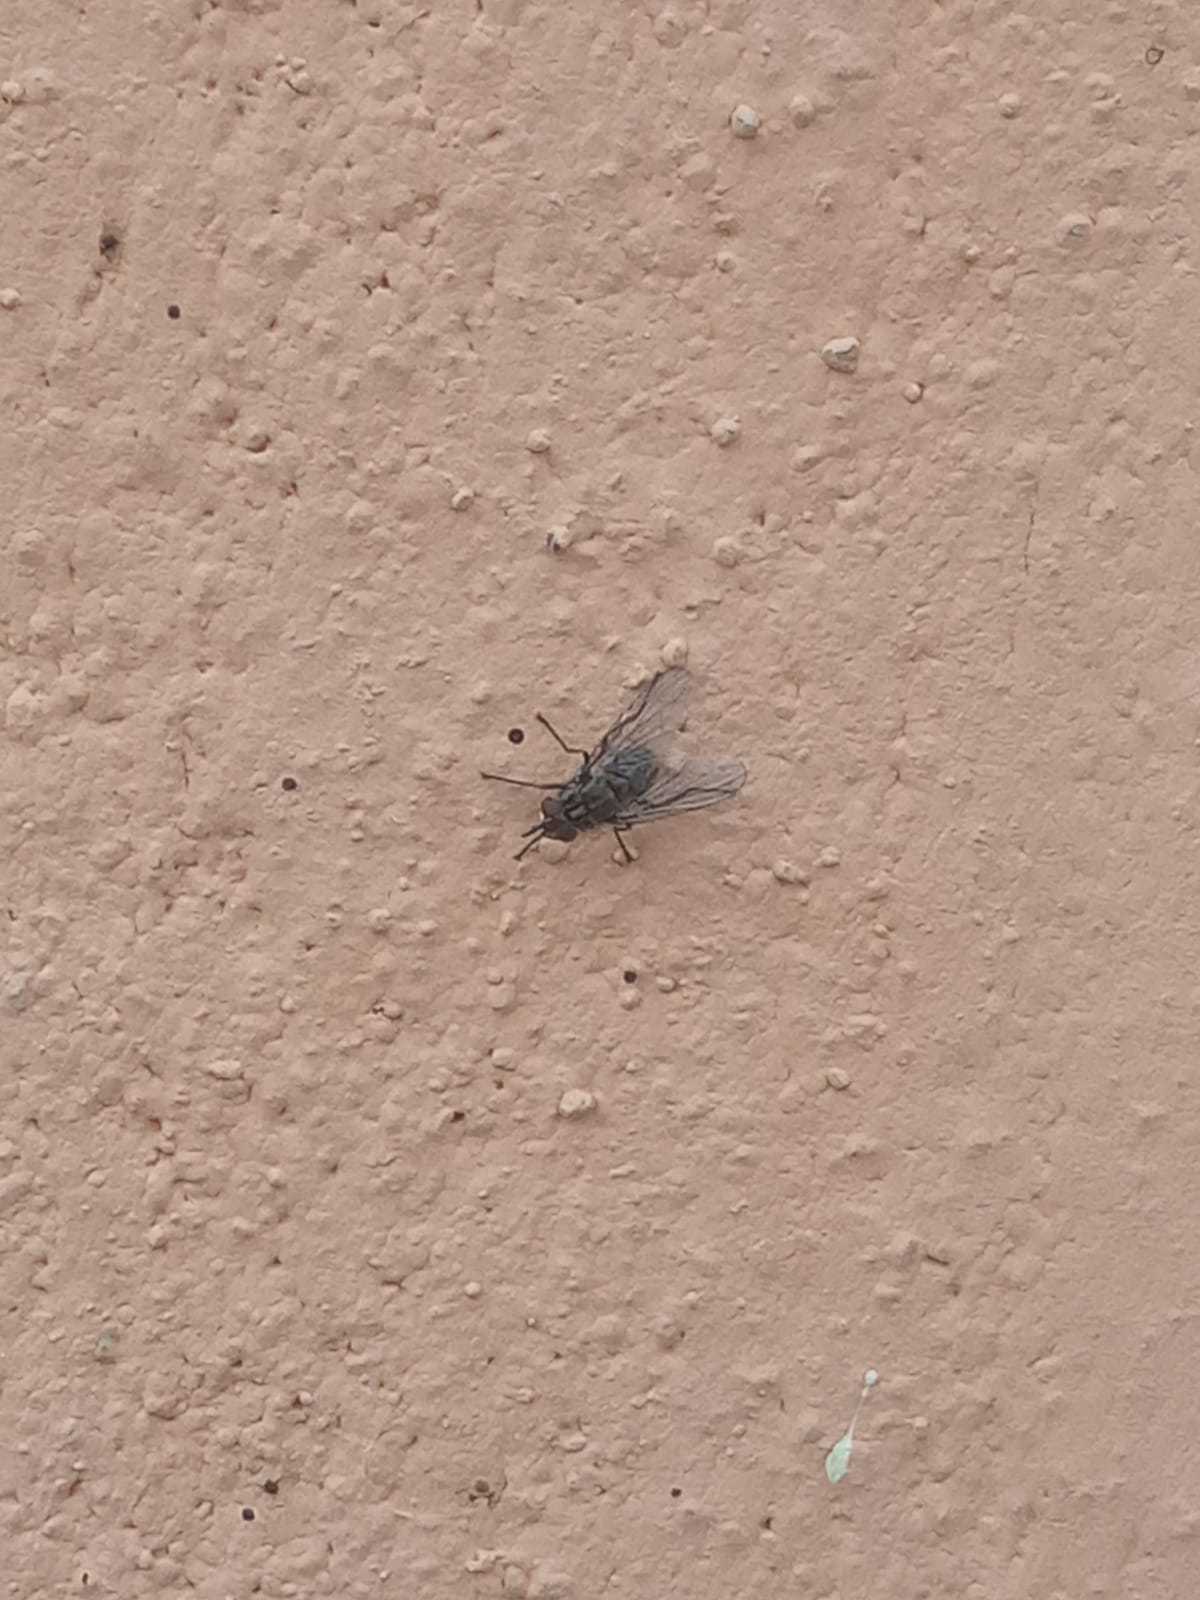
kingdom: Animalia
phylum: Arthropoda
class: Insecta
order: Diptera
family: Muscidae
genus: Stomoxys
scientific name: Stomoxys calcitrans
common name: Stable fly
